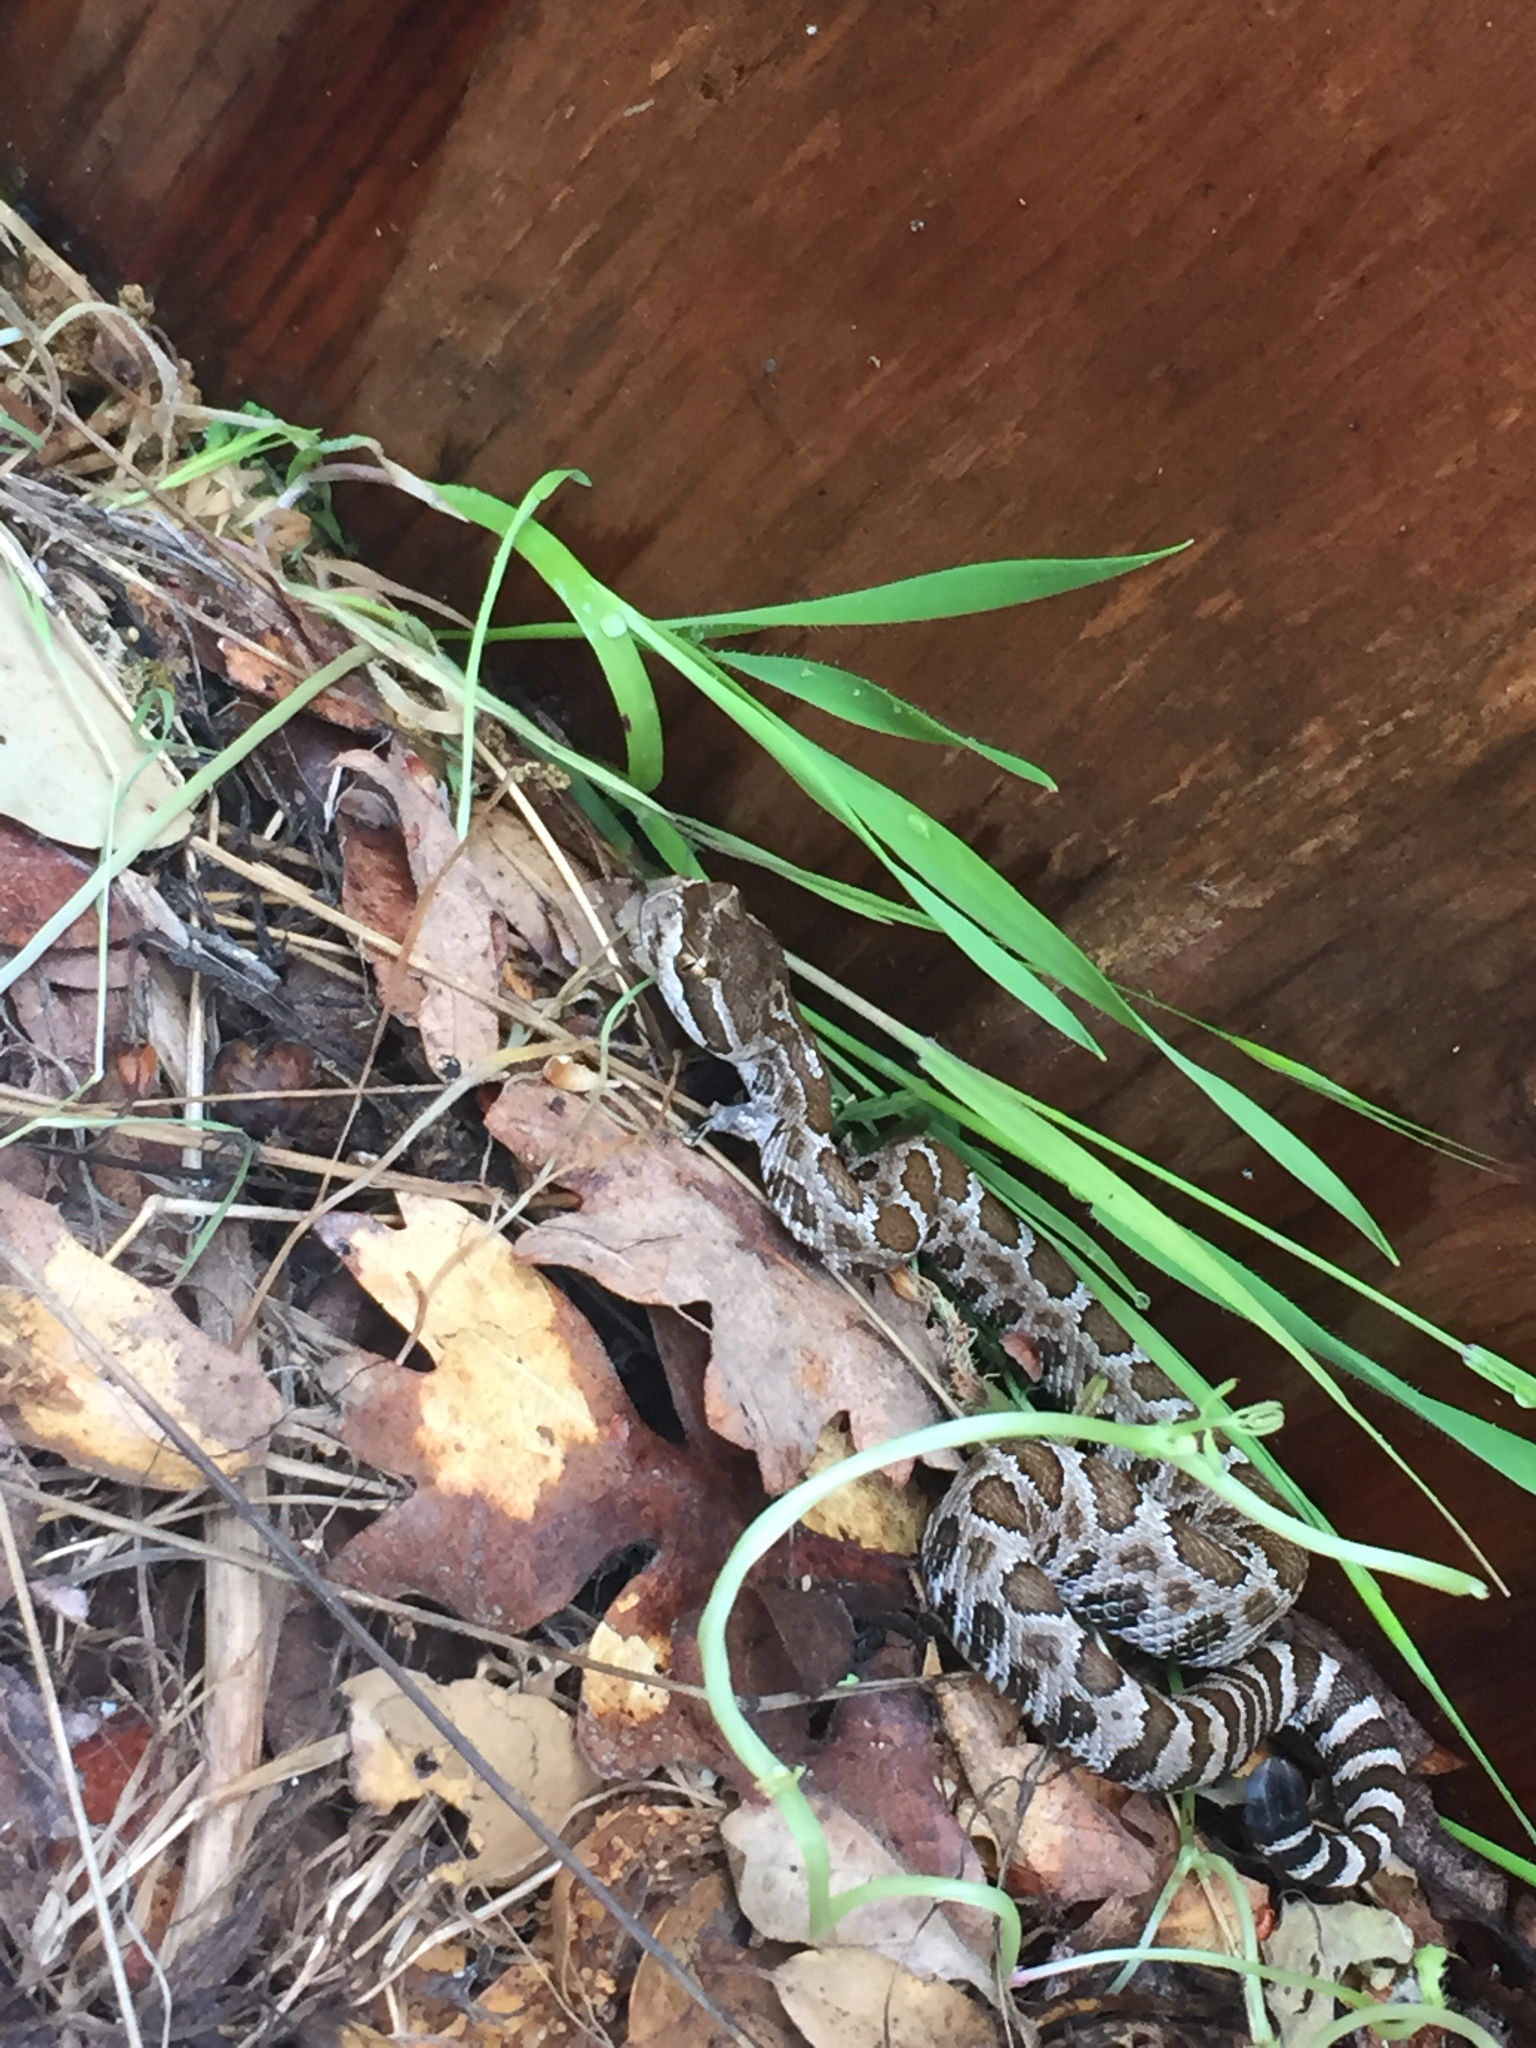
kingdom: Animalia
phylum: Chordata
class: Squamata
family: Viperidae
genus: Crotalus
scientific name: Crotalus oreganus
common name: Abyssus
